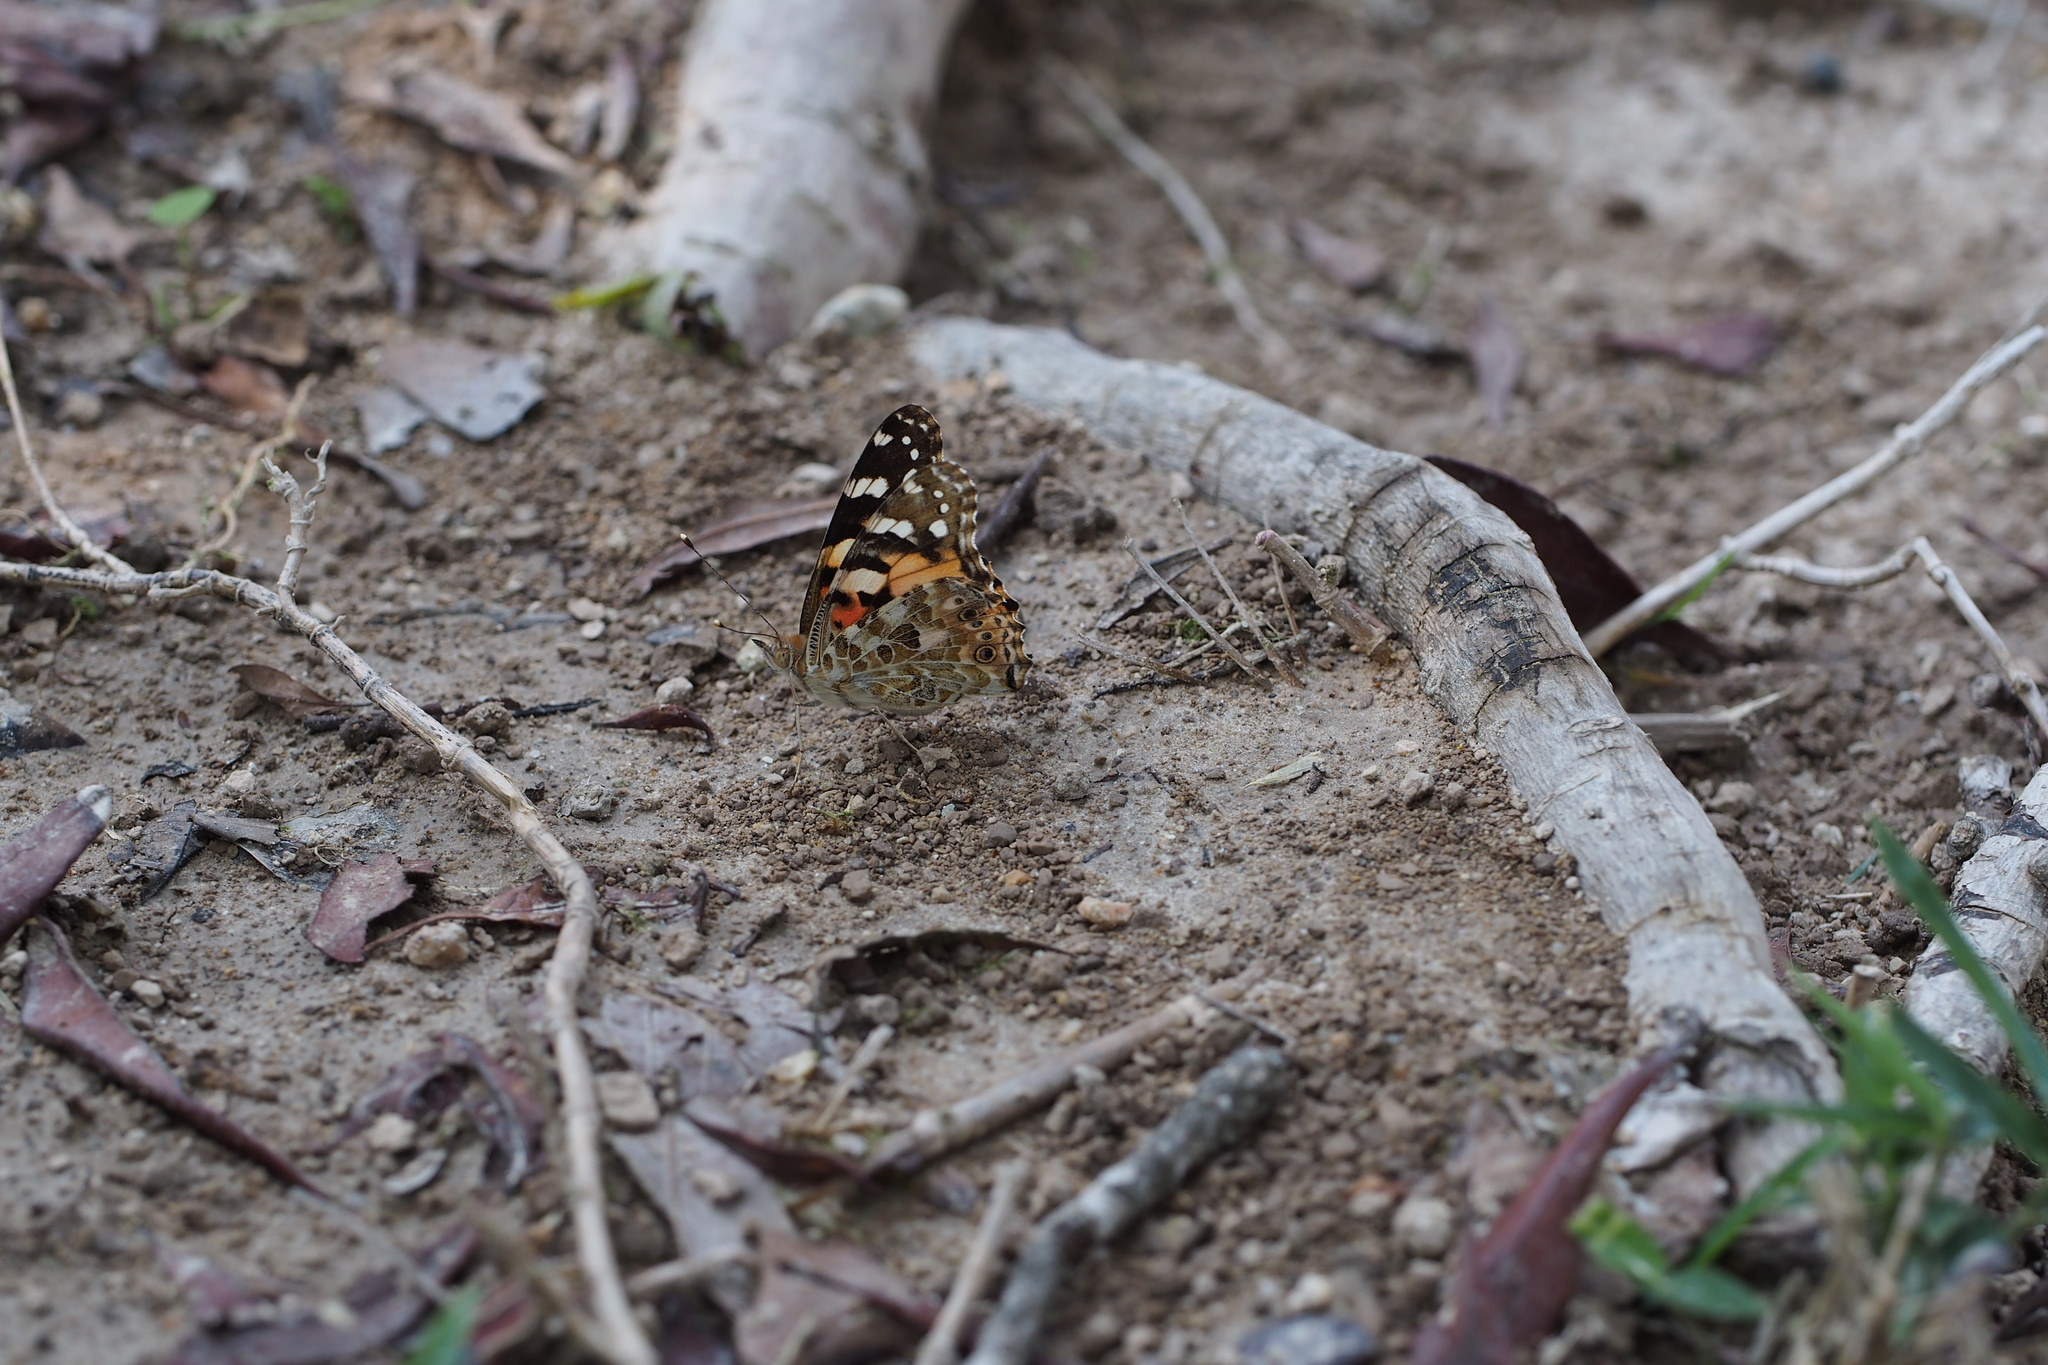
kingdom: Animalia
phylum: Arthropoda
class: Insecta
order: Lepidoptera
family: Nymphalidae
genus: Vanessa
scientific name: Vanessa cardui
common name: Painted lady
